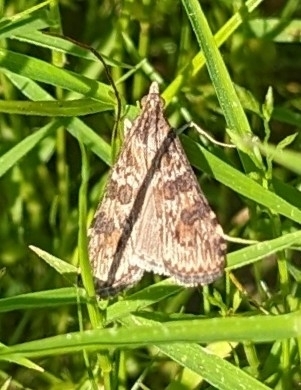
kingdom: Animalia
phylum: Arthropoda
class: Insecta
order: Lepidoptera
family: Crambidae
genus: Nomophila
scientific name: Nomophila nearctica
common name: American rush veneer
